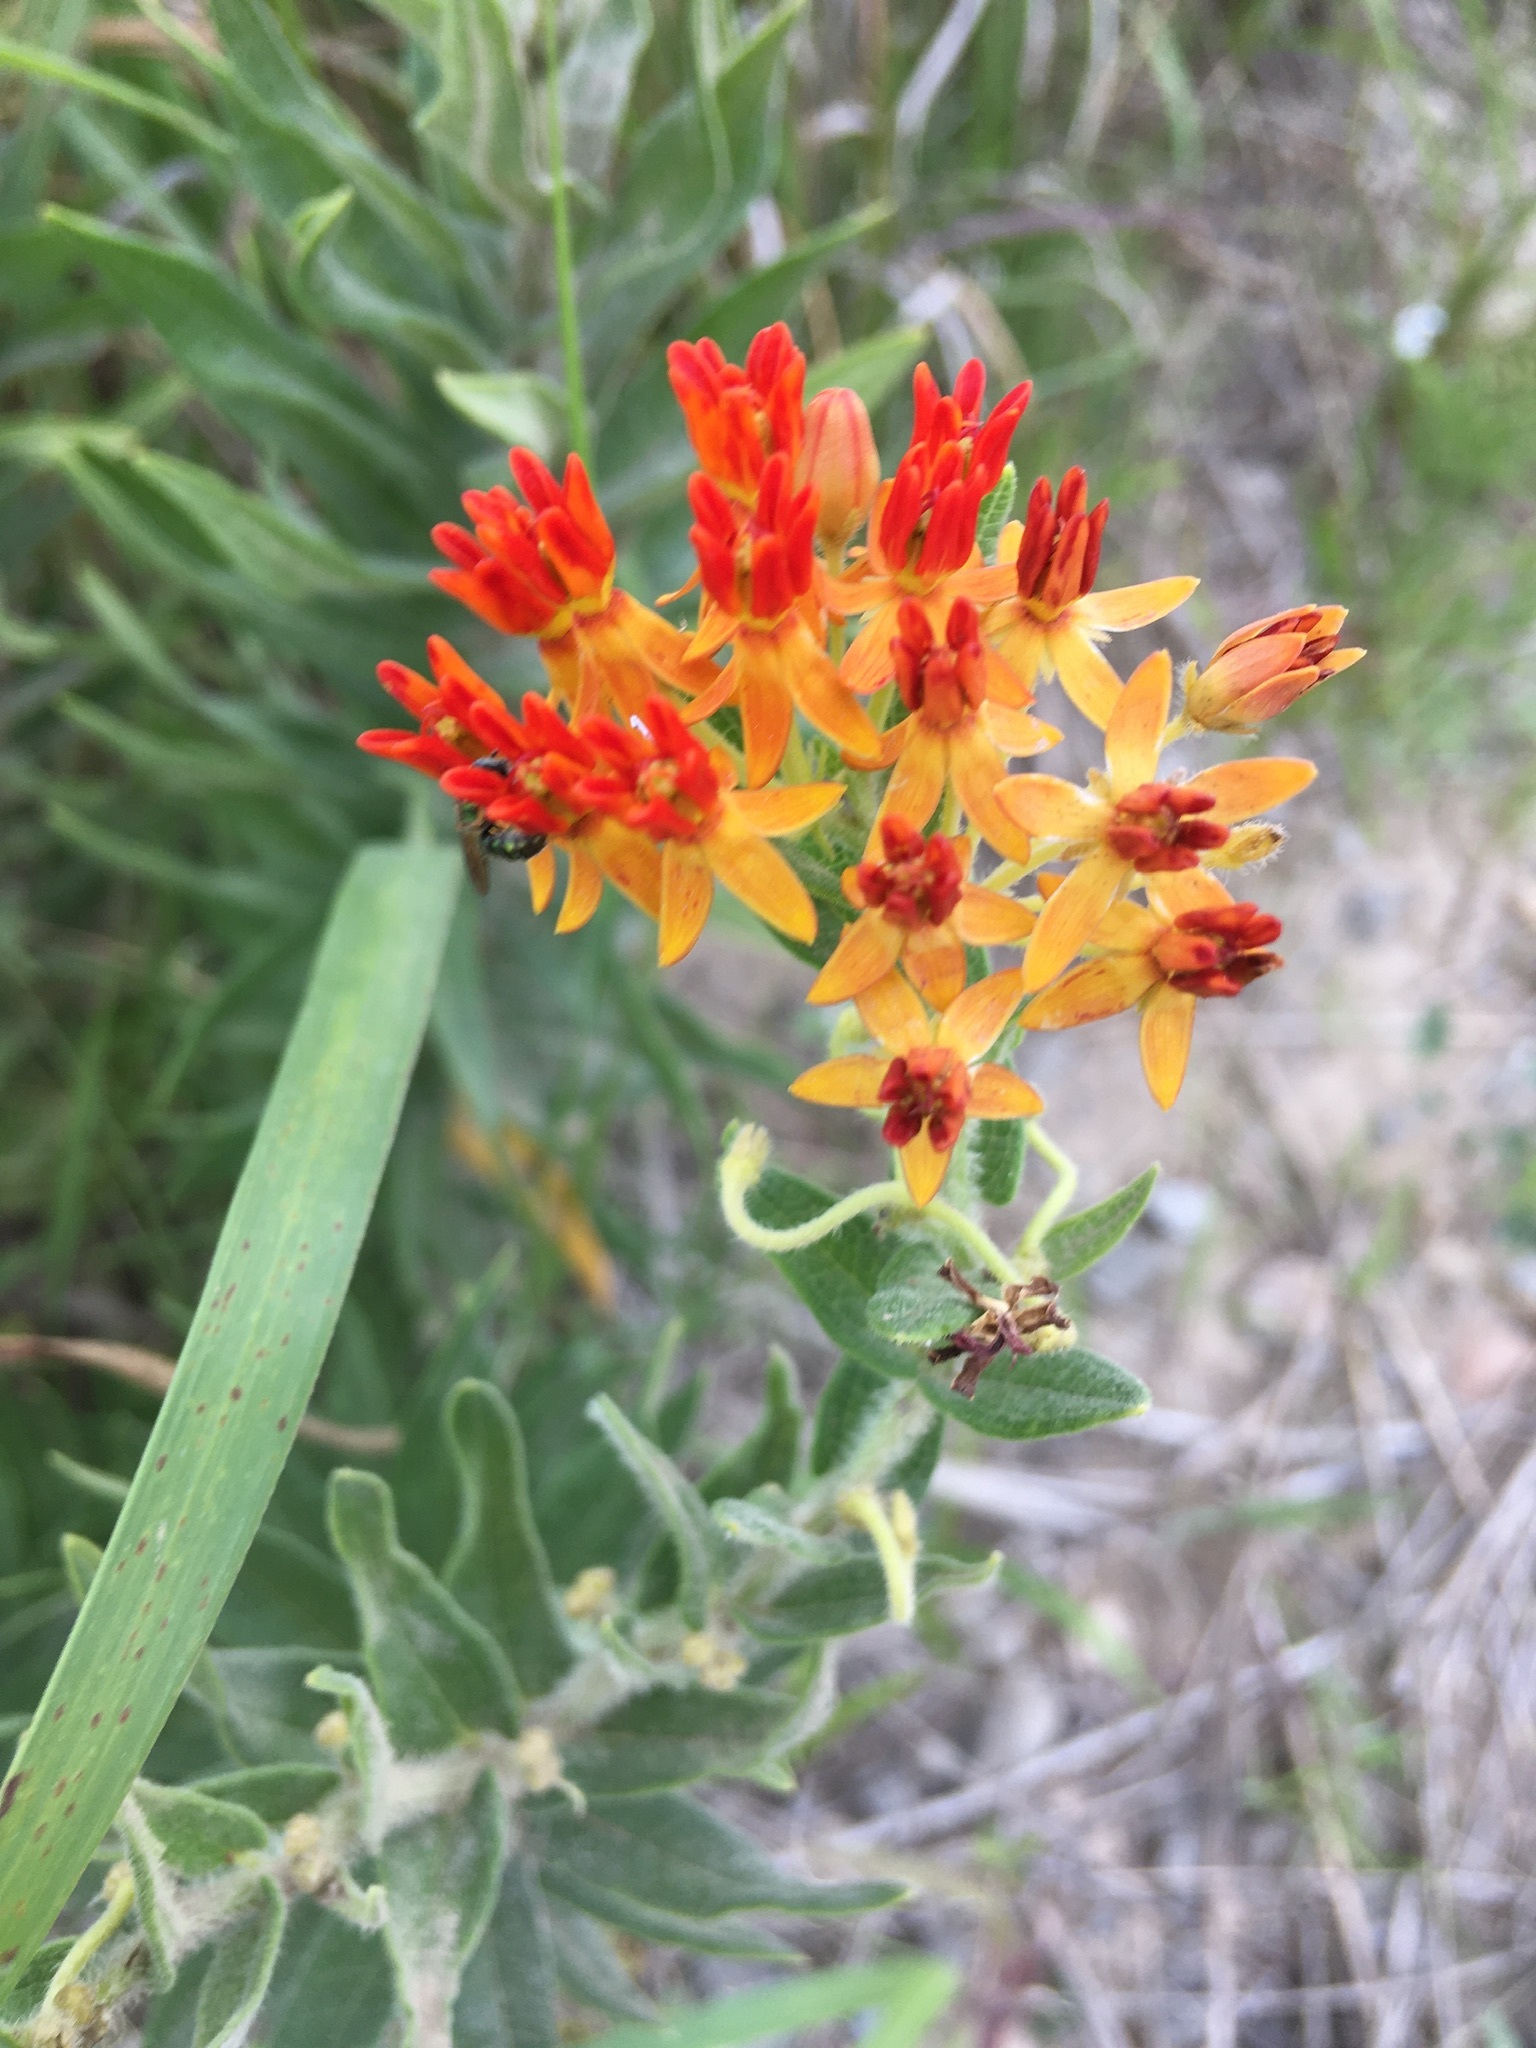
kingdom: Plantae
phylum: Tracheophyta
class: Magnoliopsida
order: Gentianales
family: Apocynaceae
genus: Asclepias
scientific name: Asclepias tuberosa
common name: Butterfly milkweed
